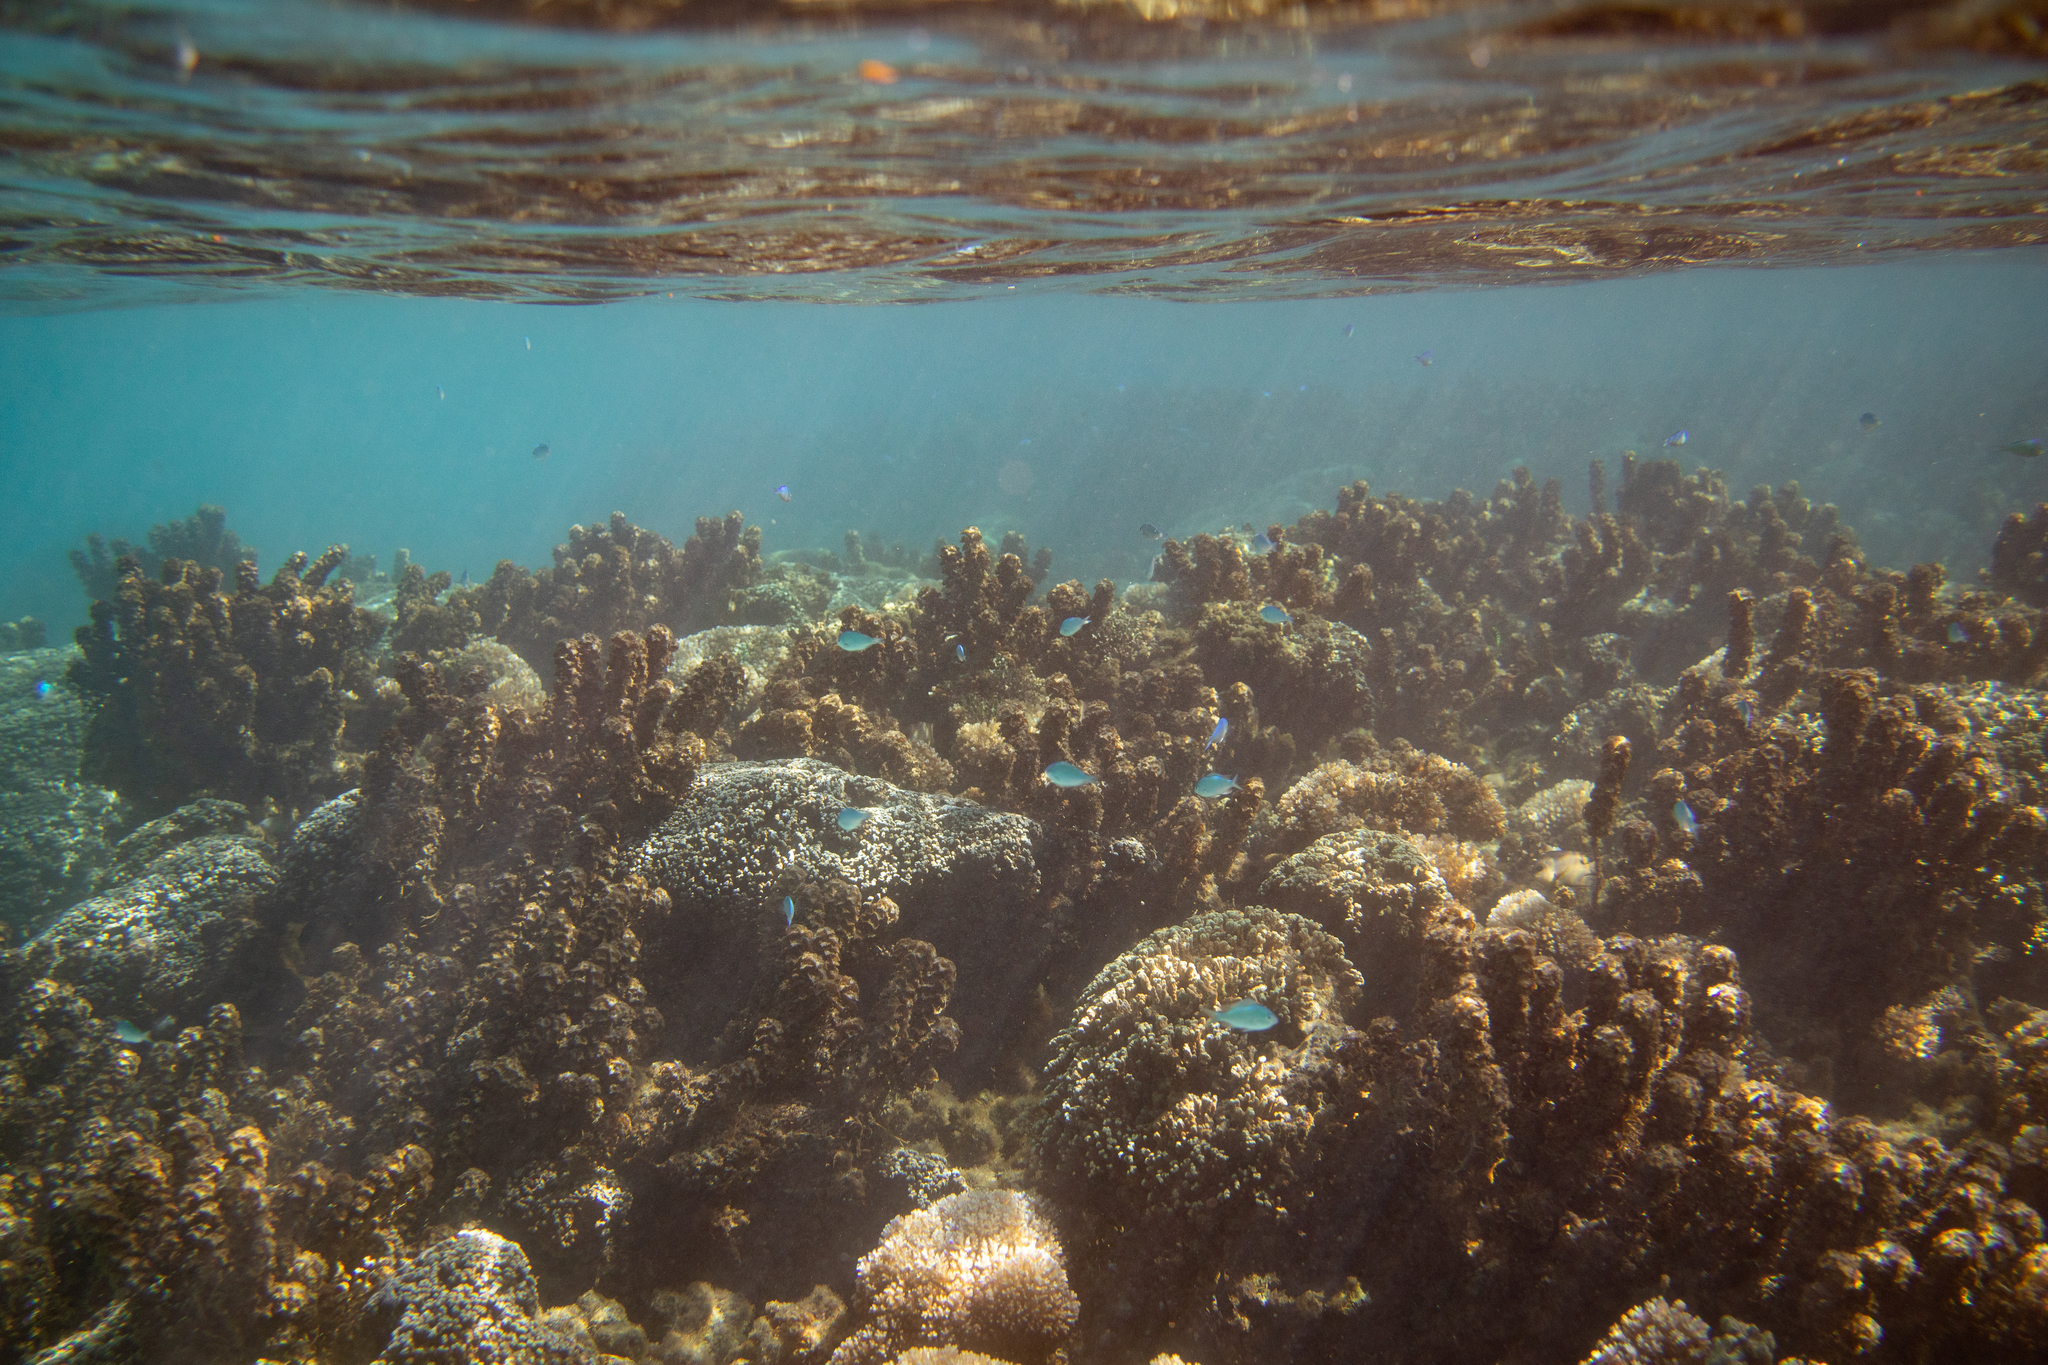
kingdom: Animalia
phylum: Chordata
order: Perciformes
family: Pomacentridae
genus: Chromis
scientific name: Chromis viridis
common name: Blue-green chromis
